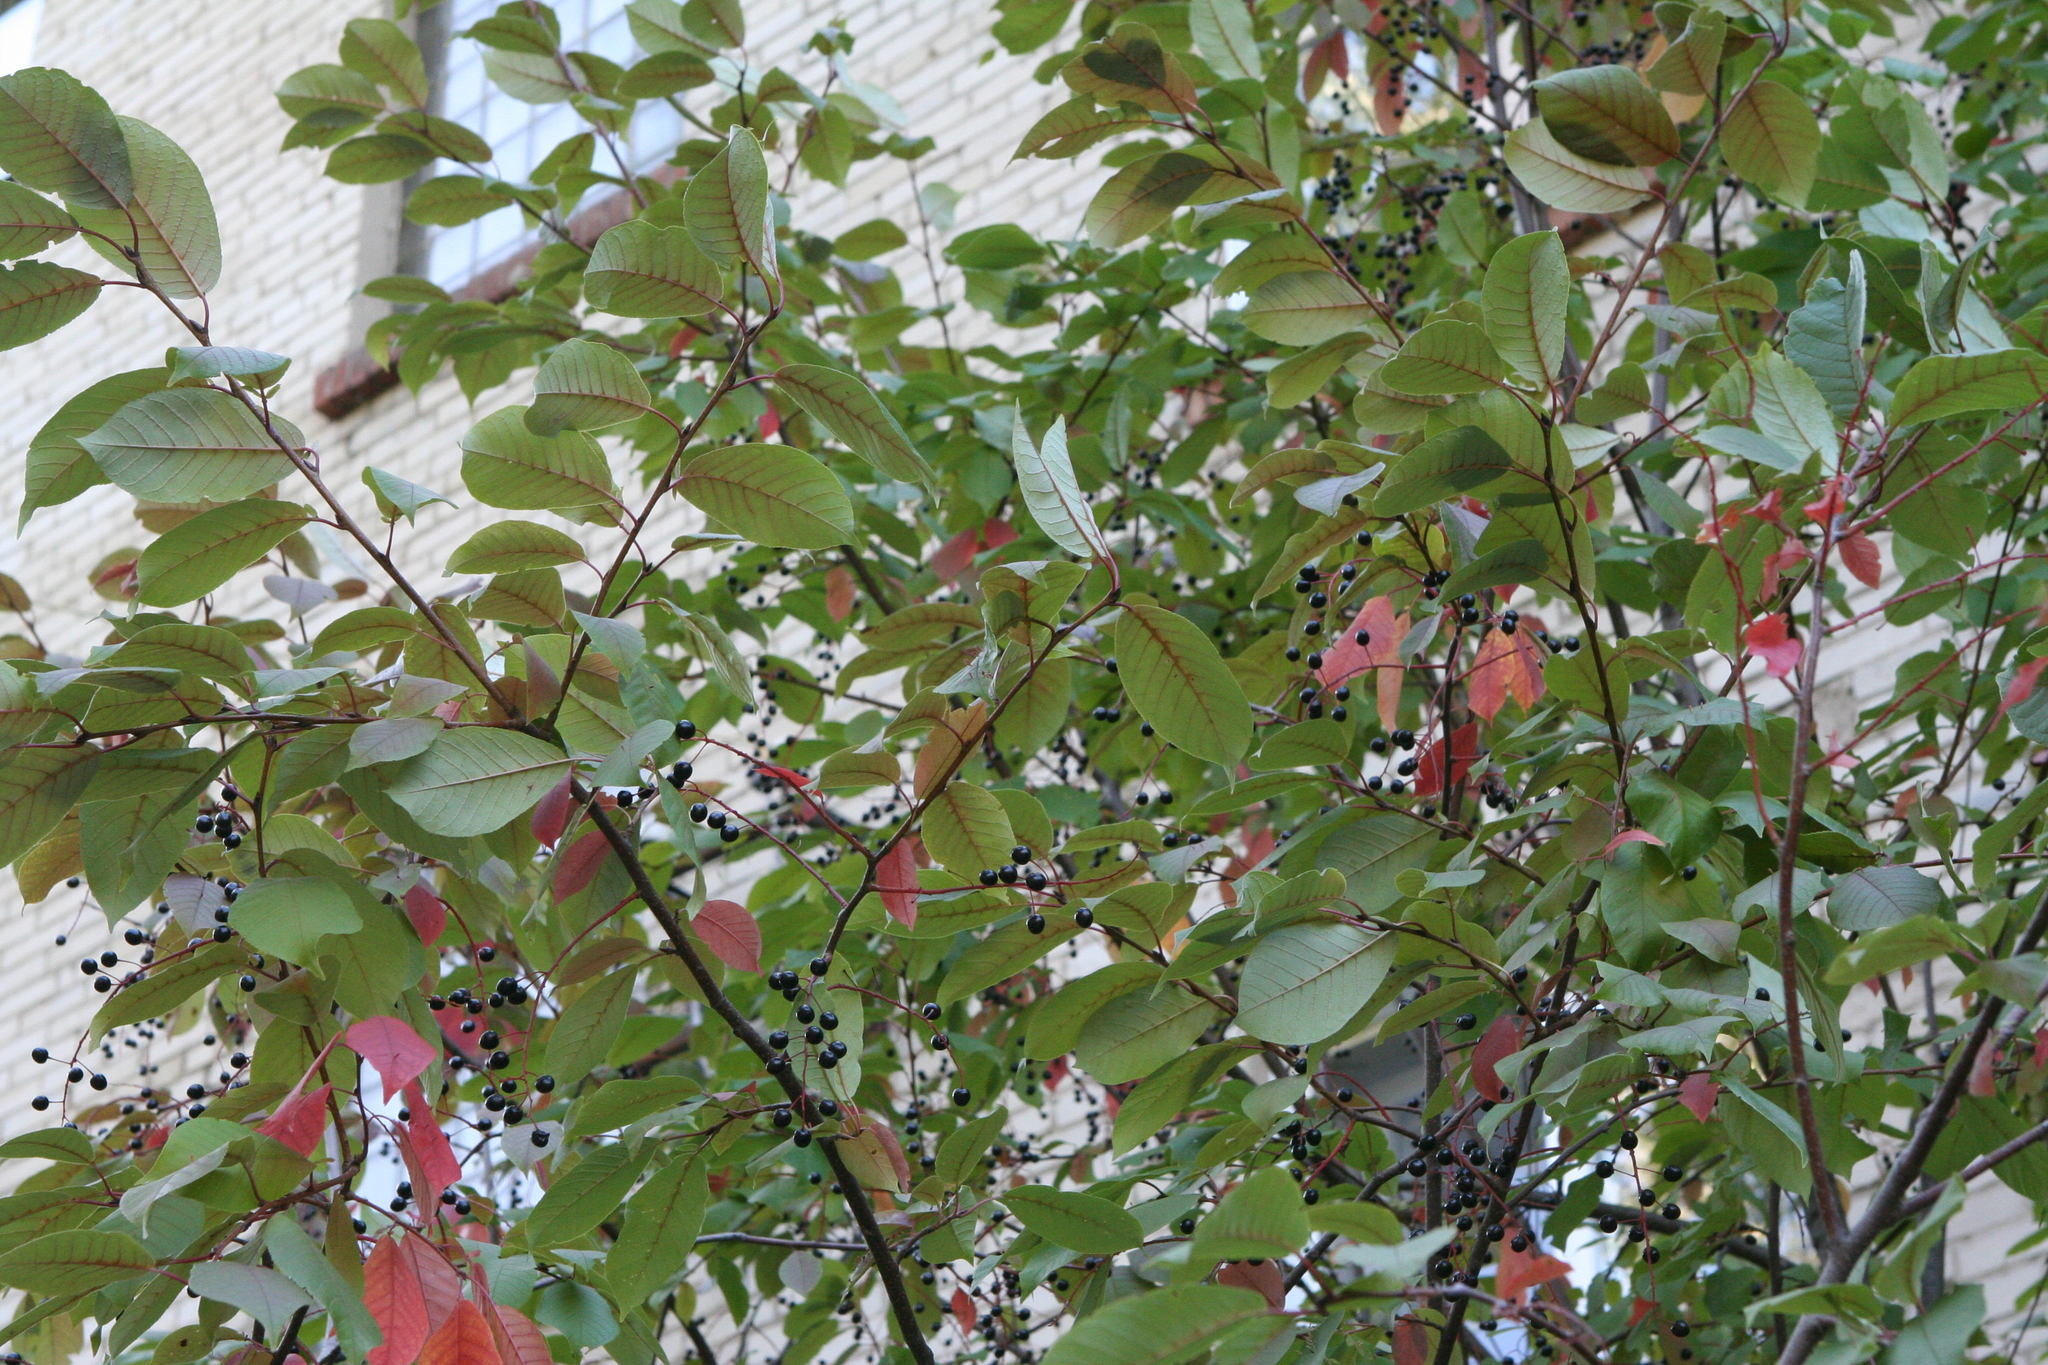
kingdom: Plantae
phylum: Tracheophyta
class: Magnoliopsida
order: Rosales
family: Rosaceae
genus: Prunus
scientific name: Prunus padus
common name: Bird cherry
